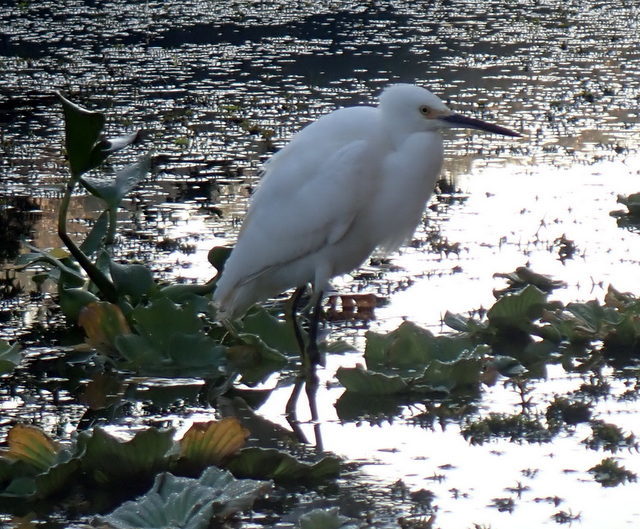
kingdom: Animalia
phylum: Chordata
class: Aves
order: Pelecaniformes
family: Ardeidae
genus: Egretta
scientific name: Egretta thula
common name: Snowy egret
